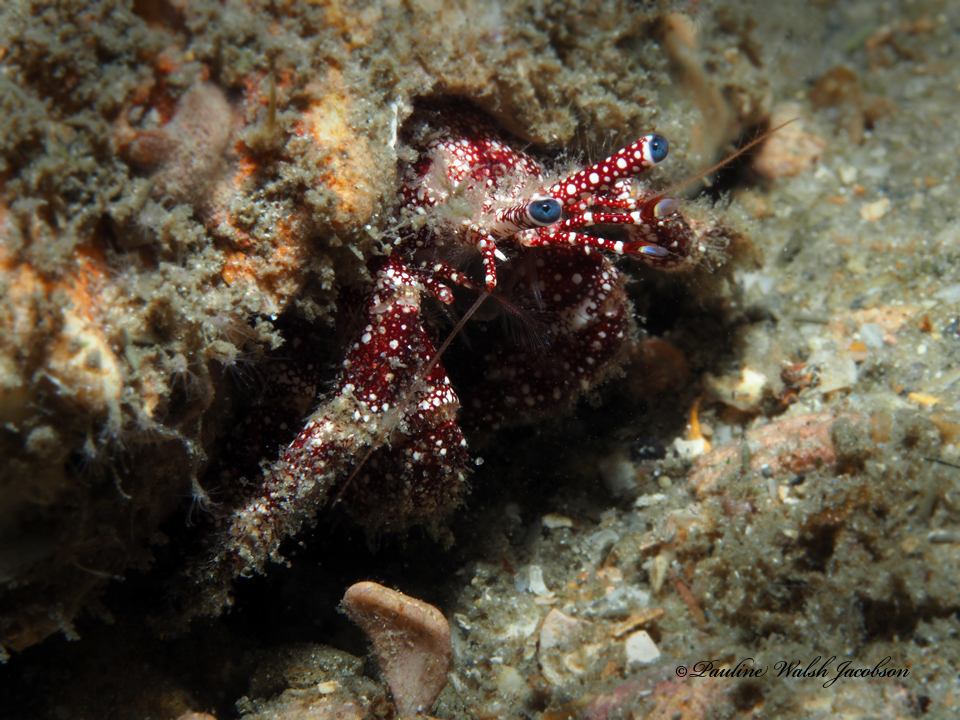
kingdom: Animalia
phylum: Arthropoda
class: Malacostraca
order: Decapoda
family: Diogenidae
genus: Paguristes
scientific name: Paguristes puncticeps
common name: White speckled hermit
